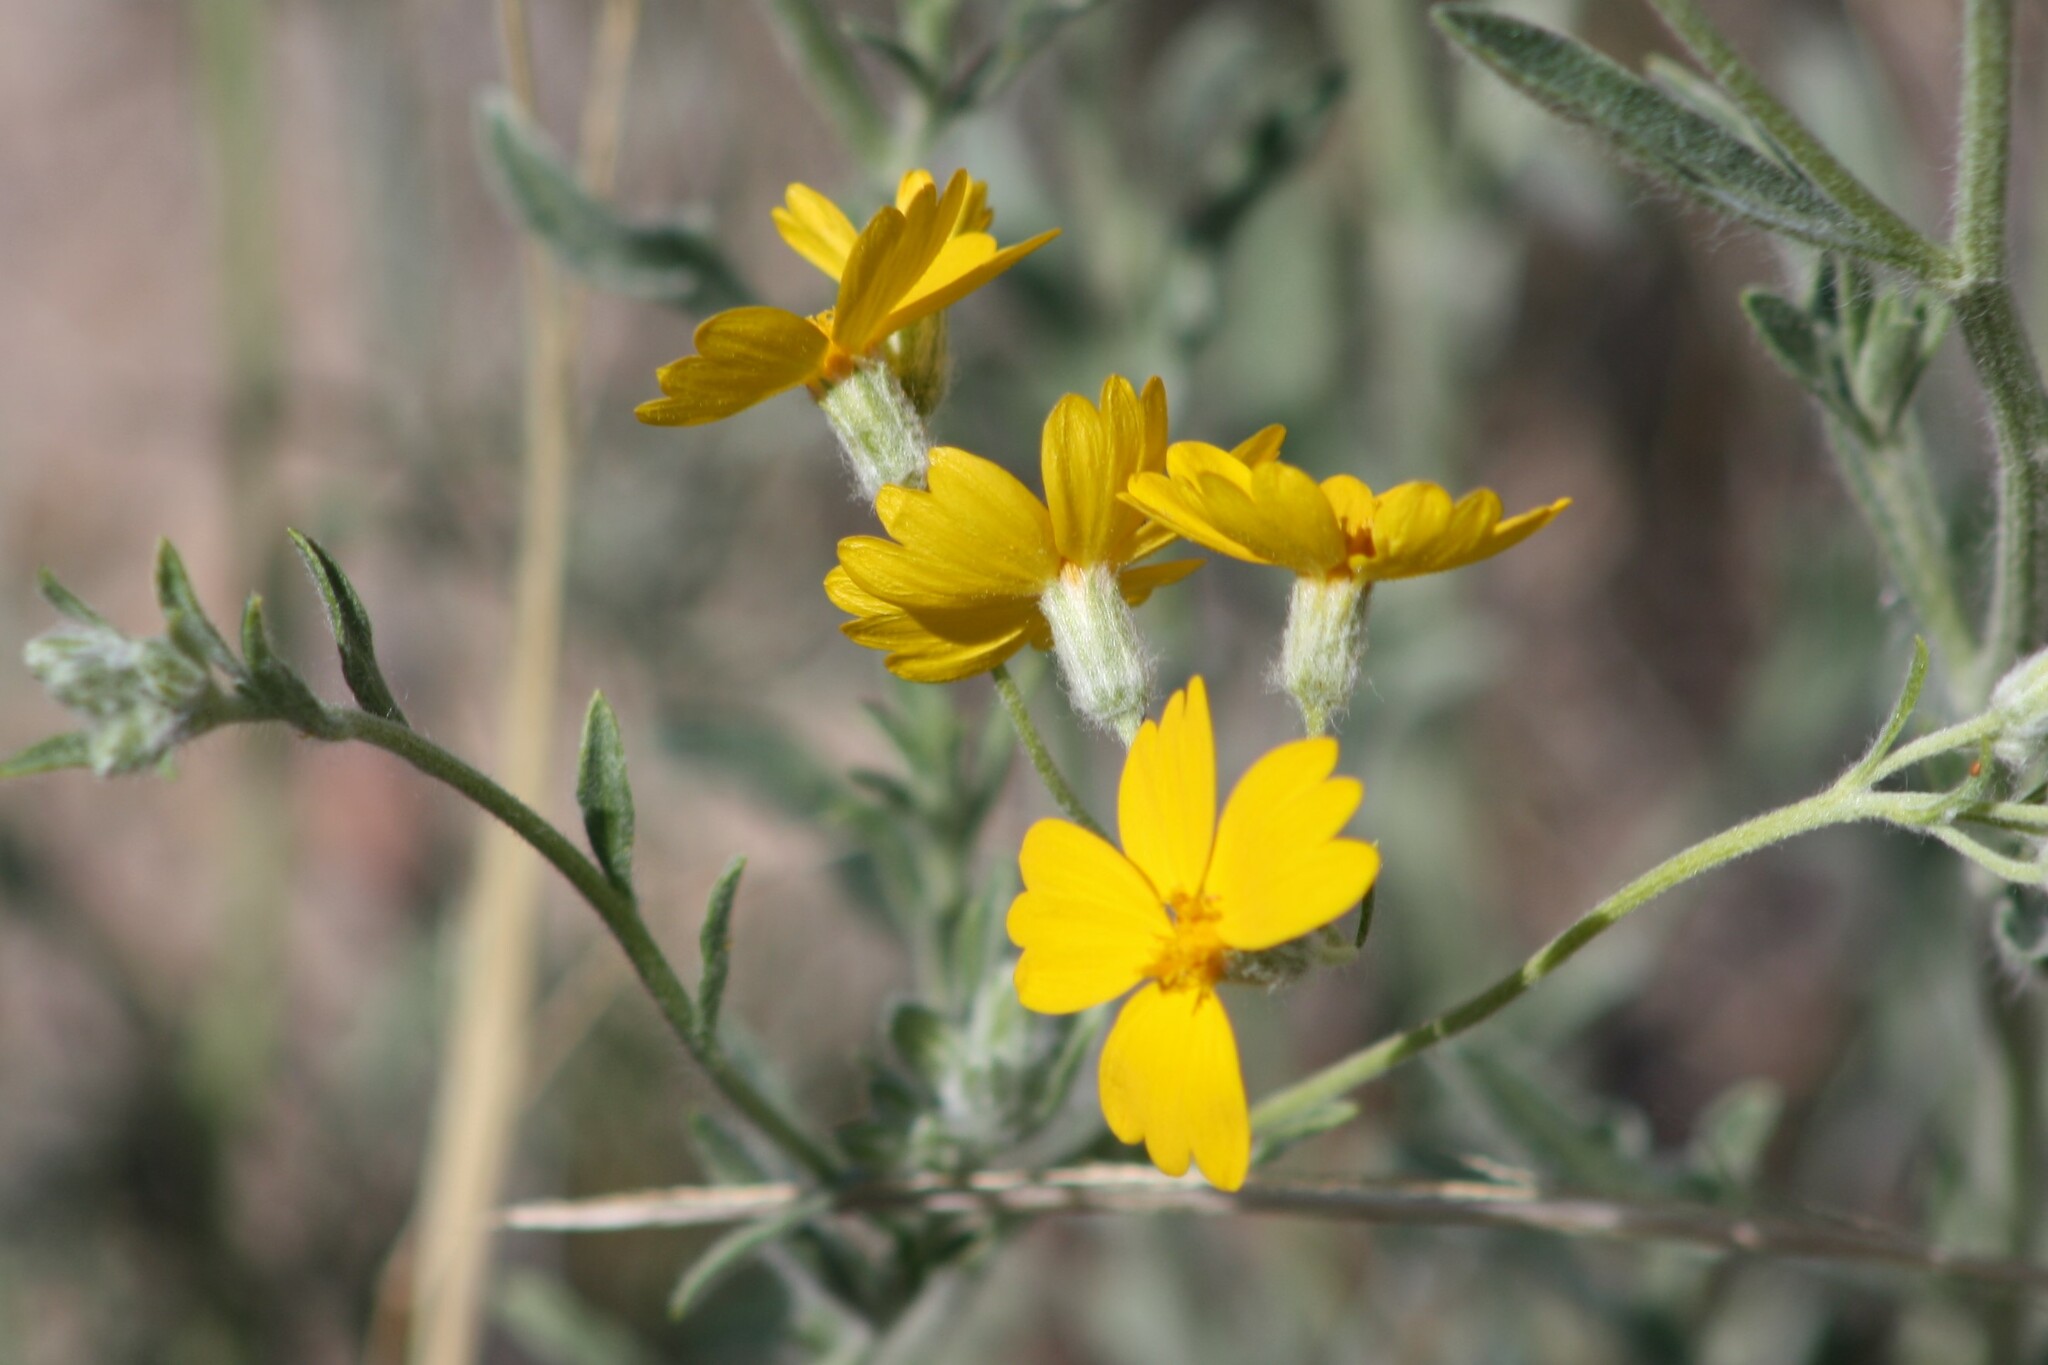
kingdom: Plantae
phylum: Tracheophyta
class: Magnoliopsida
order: Asterales
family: Asteraceae
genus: Psilostrophe
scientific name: Psilostrophe tagetina
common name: Marigold paper-flower
